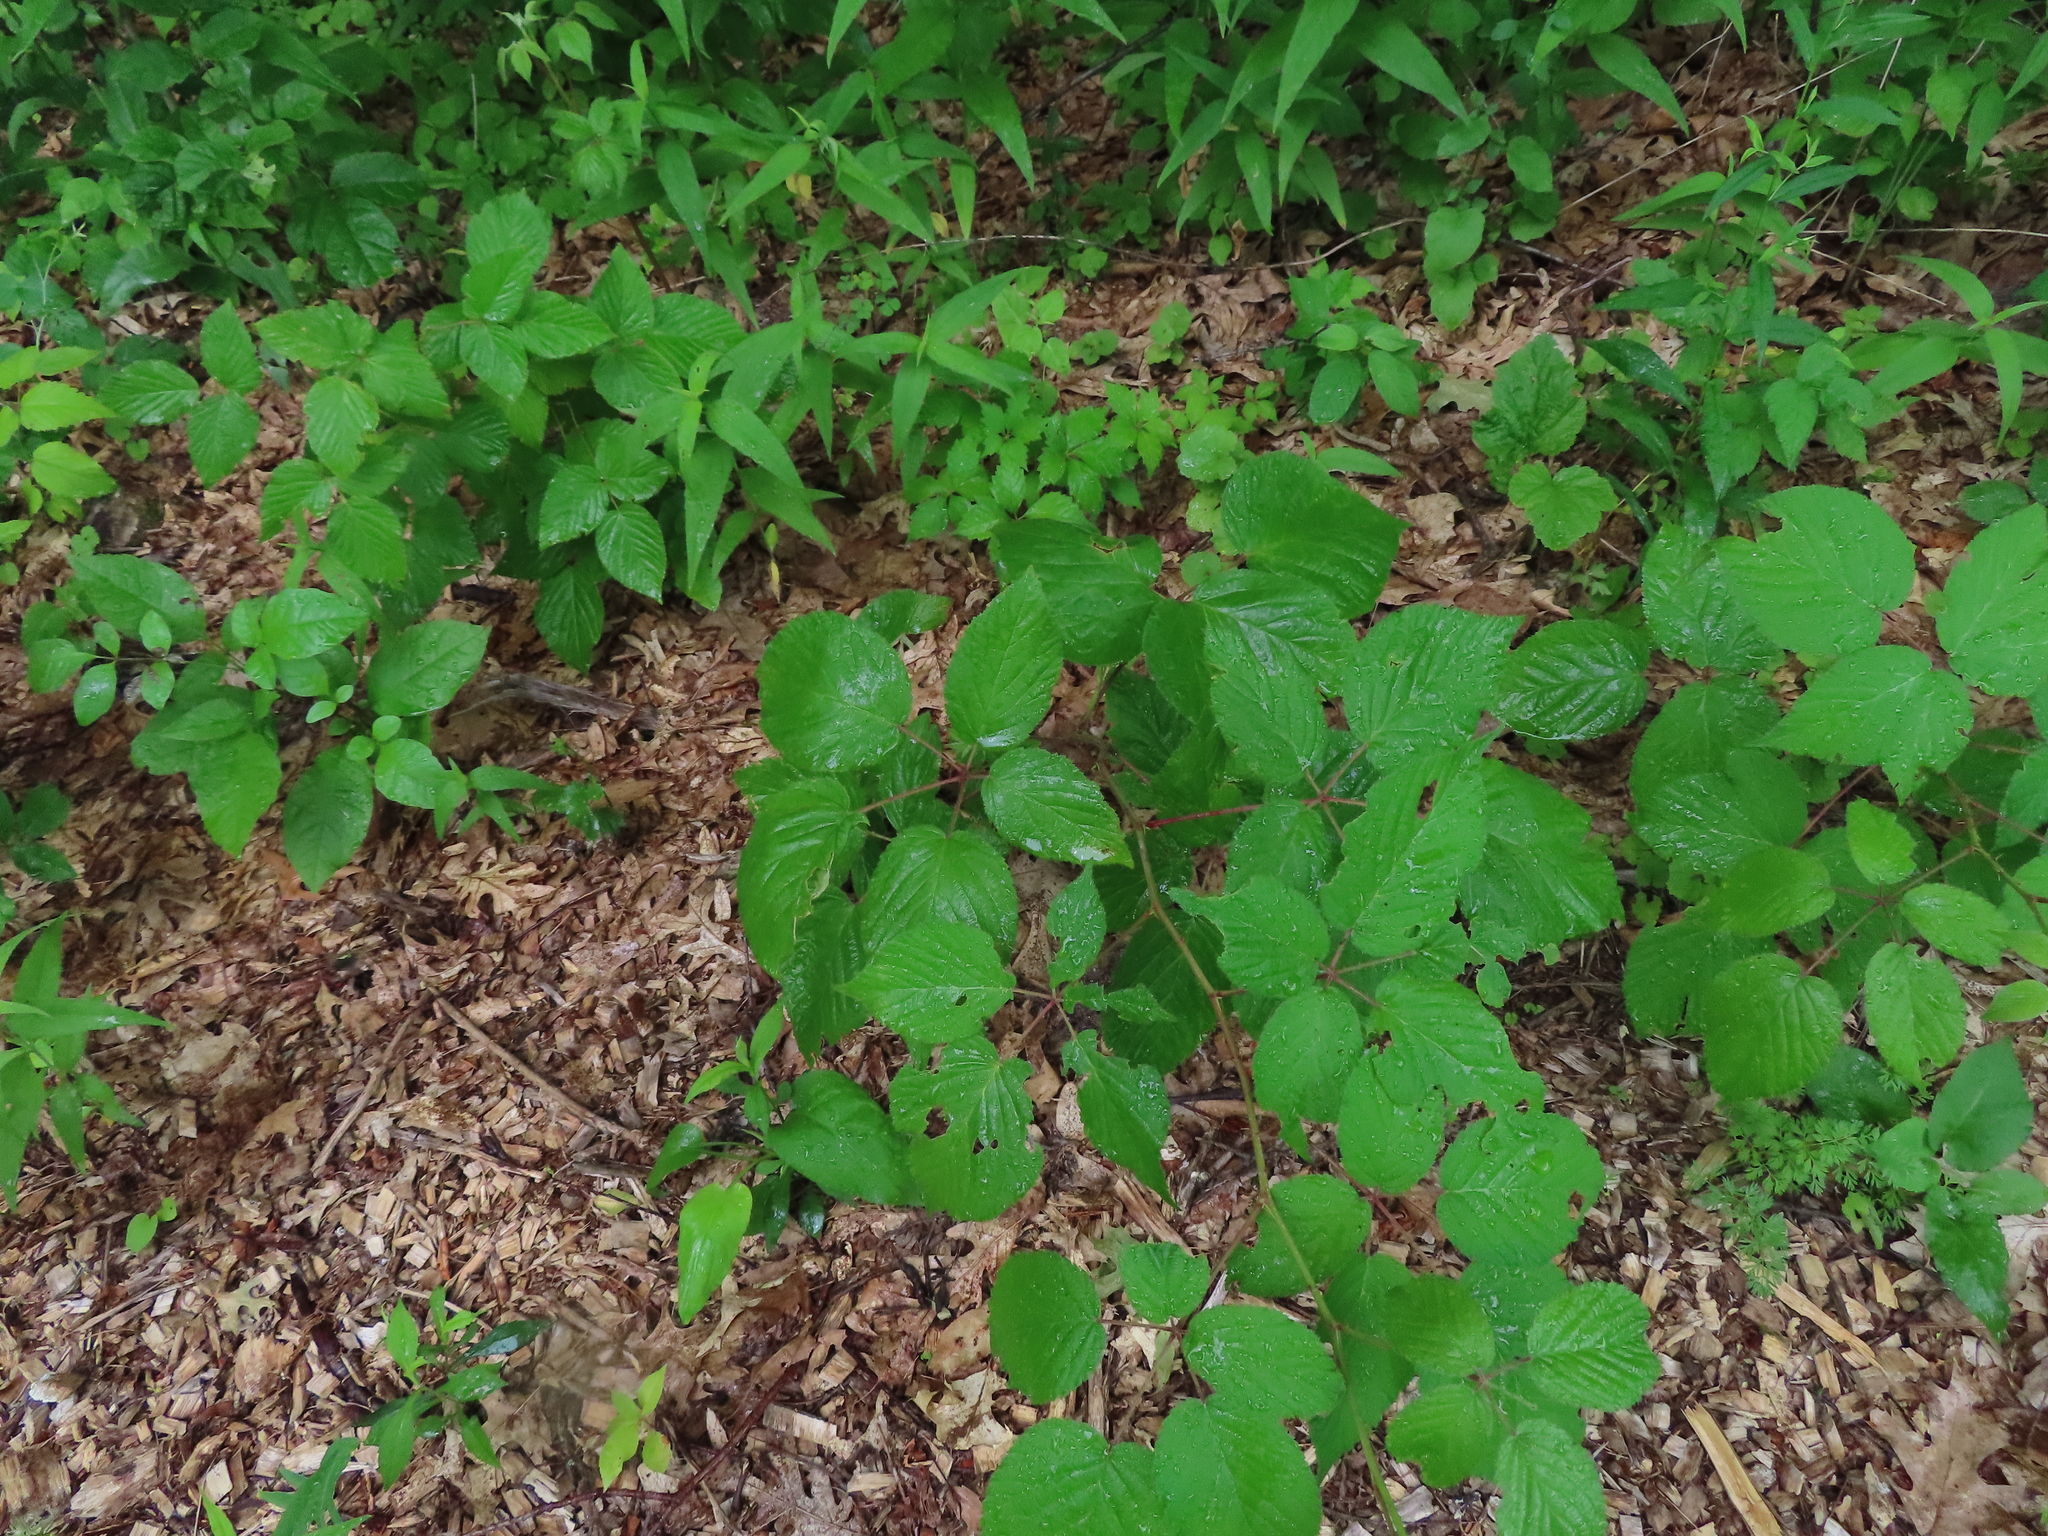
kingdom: Plantae
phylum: Tracheophyta
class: Magnoliopsida
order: Rosales
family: Rosaceae
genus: Rubus
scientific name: Rubus allegheniensis
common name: Allegheny blackberry
